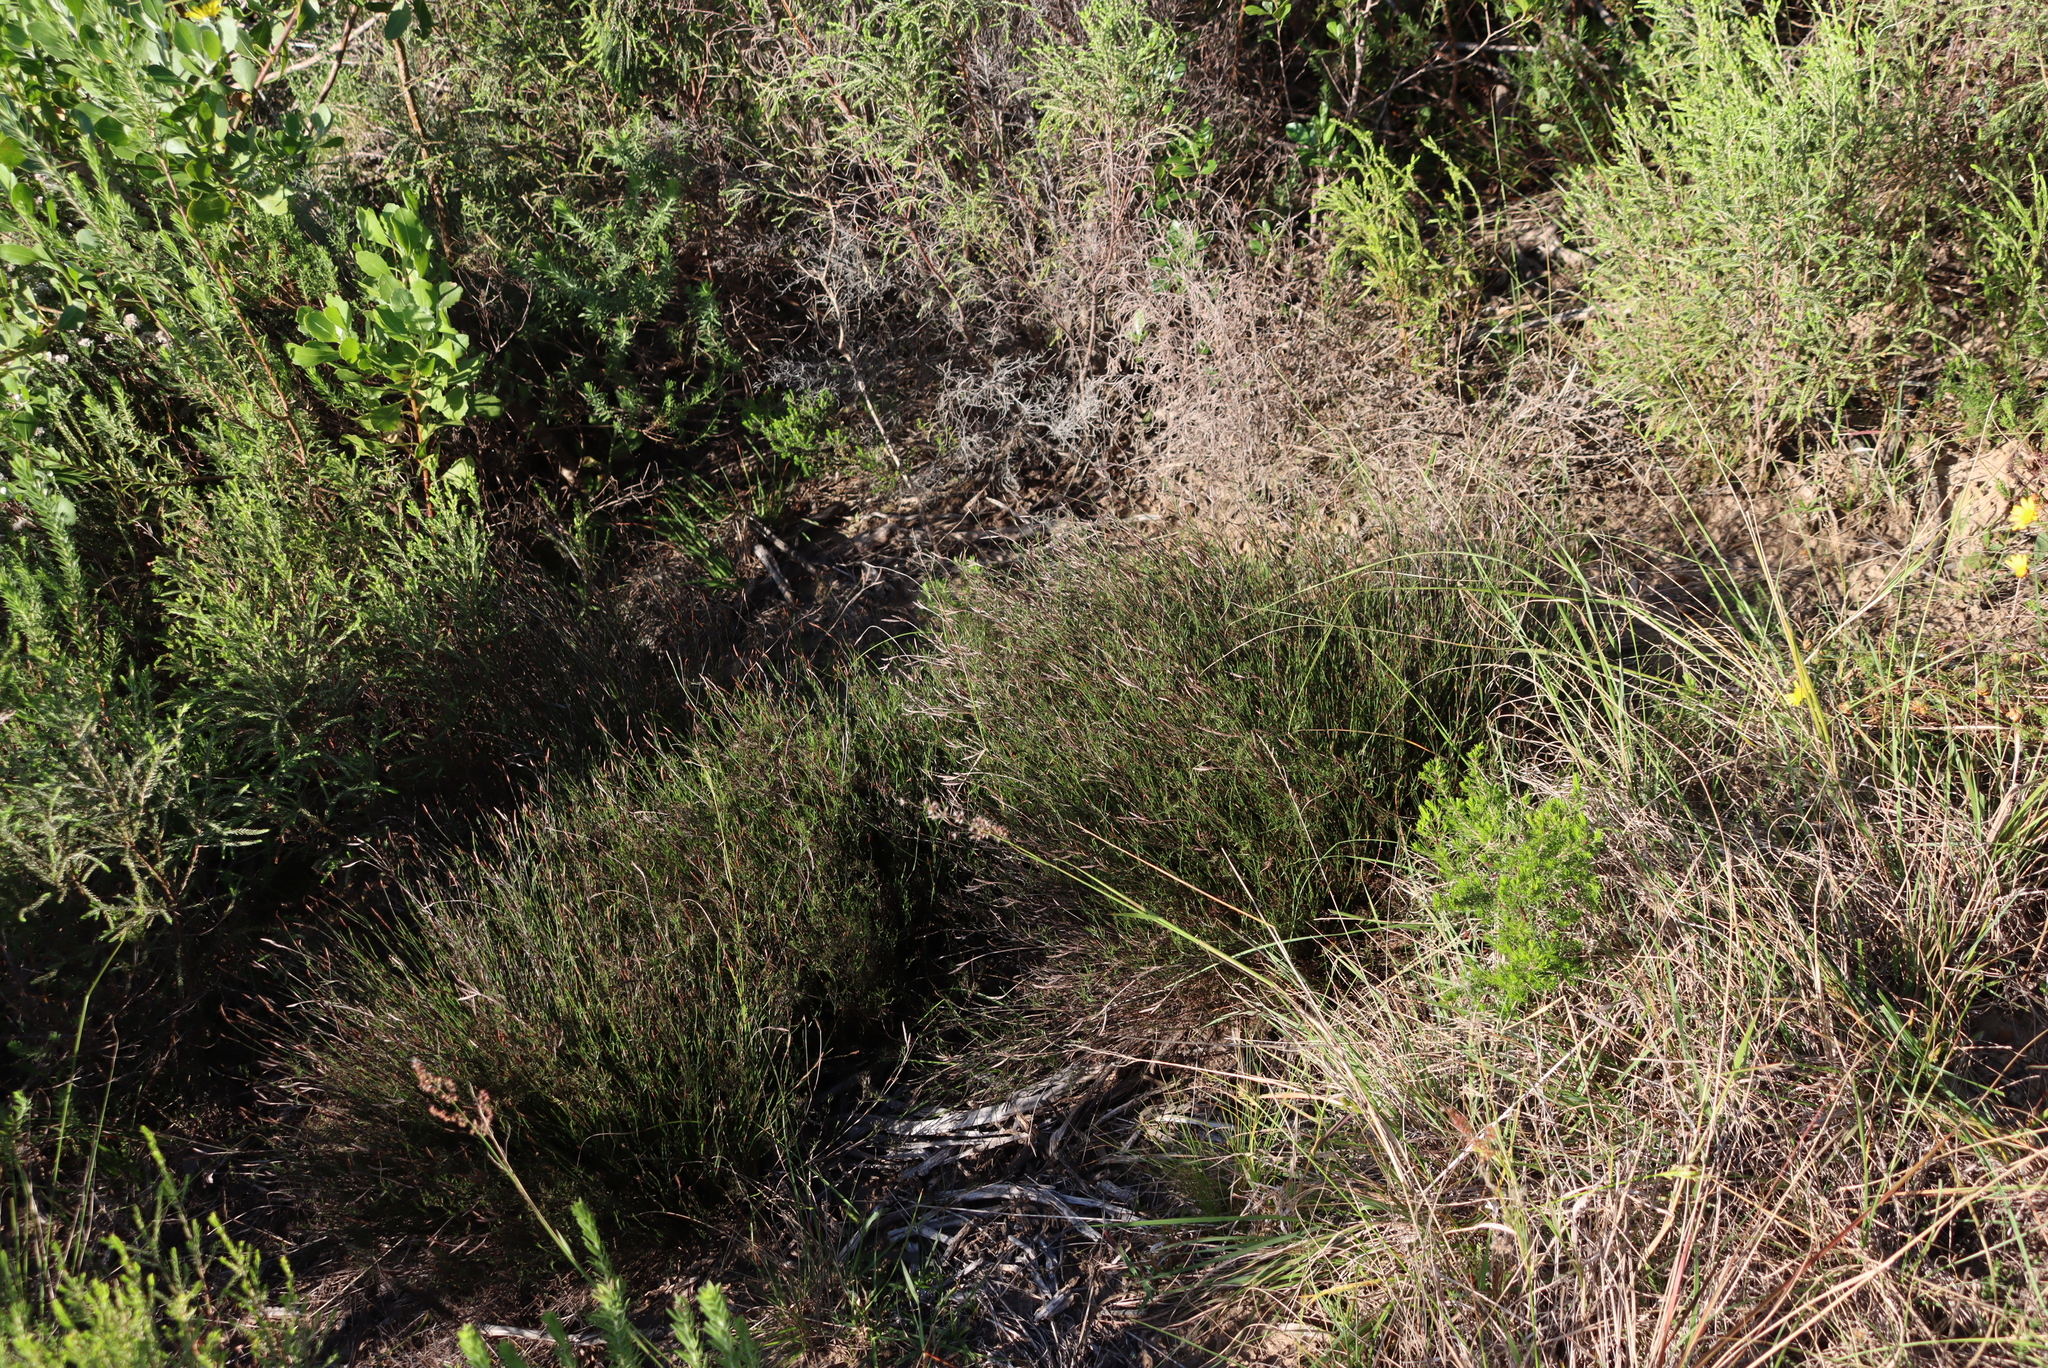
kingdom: Plantae
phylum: Tracheophyta
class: Liliopsida
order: Poales
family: Restionaceae
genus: Restio
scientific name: Restio triticeus
